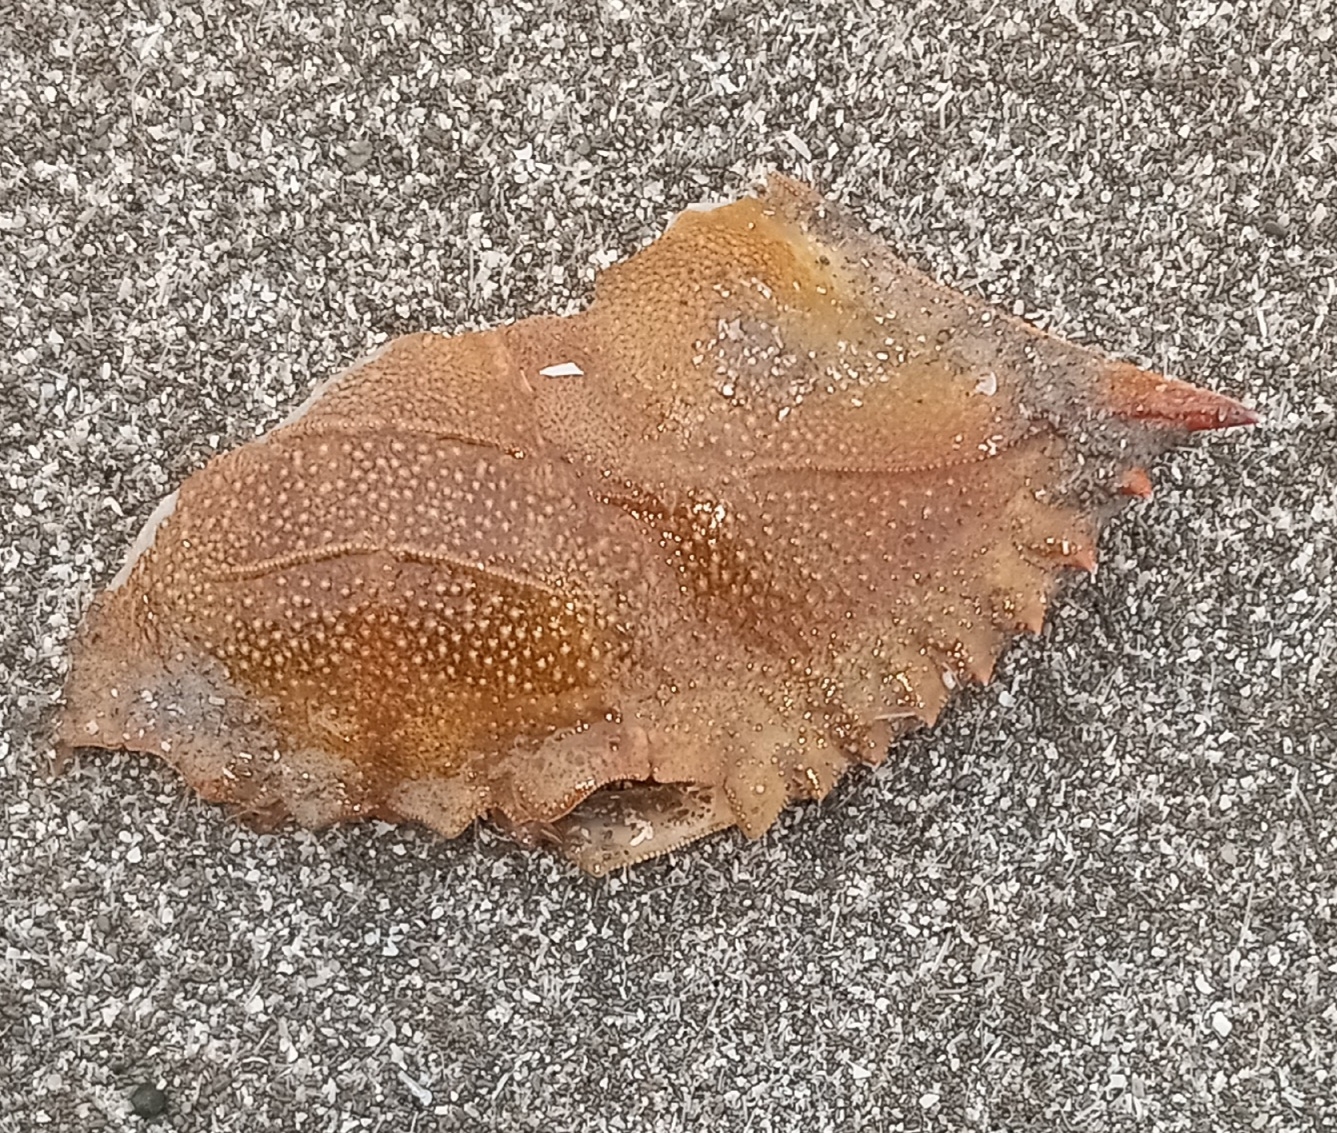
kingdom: Animalia
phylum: Arthropoda
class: Malacostraca
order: Decapoda
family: Portunidae
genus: Callinectes
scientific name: Callinectes sapidus
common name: Blue crab
